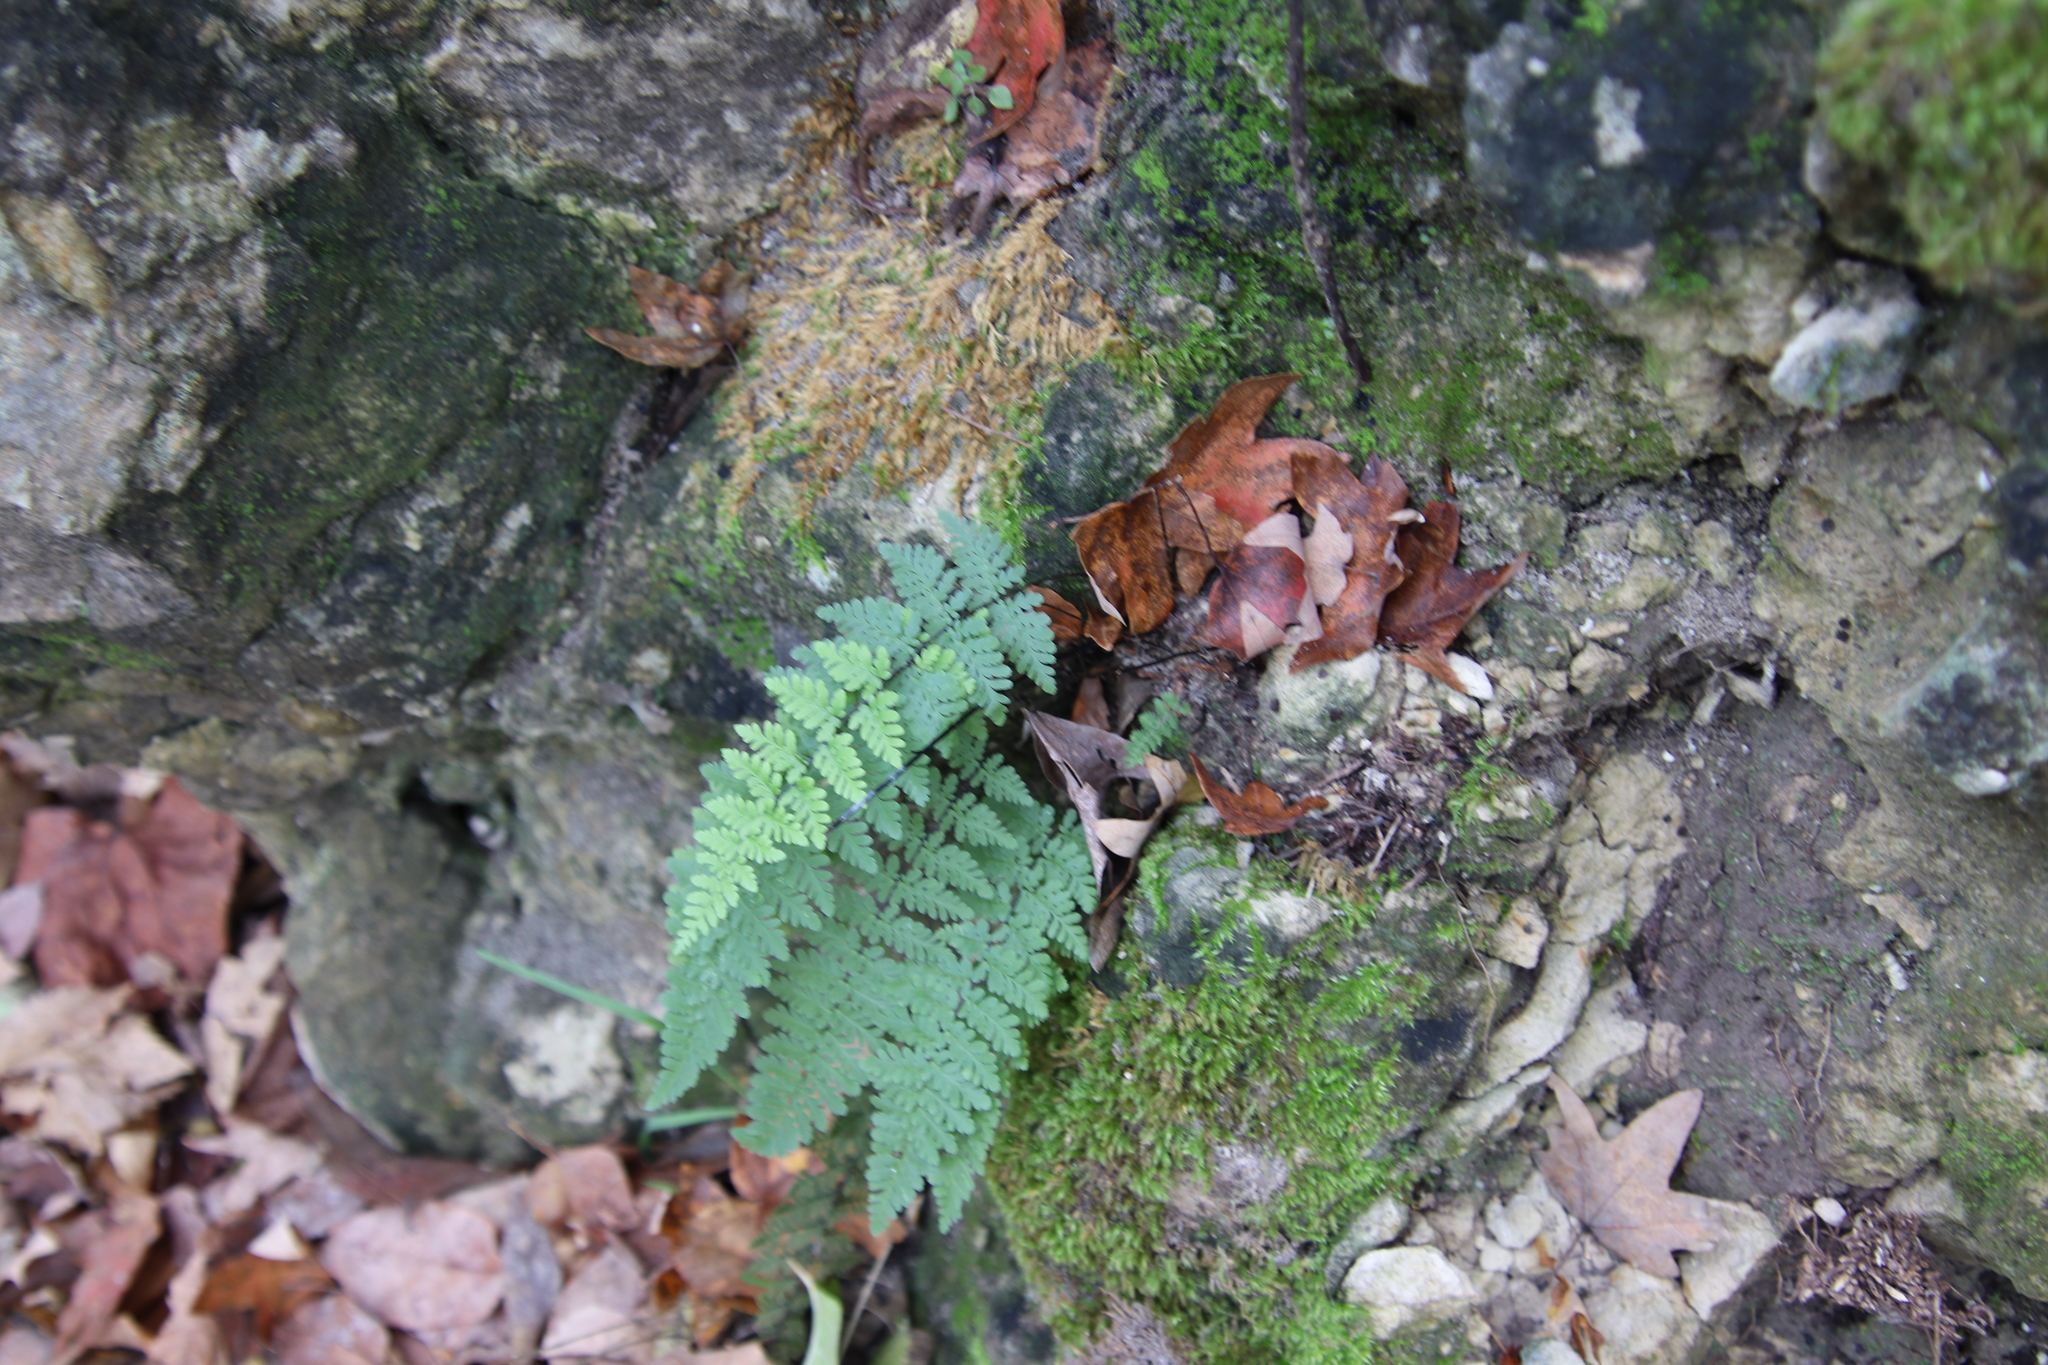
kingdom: Plantae
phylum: Tracheophyta
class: Polypodiopsida
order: Polypodiales
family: Pteridaceae
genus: Myriopteris
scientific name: Myriopteris alabamensis
